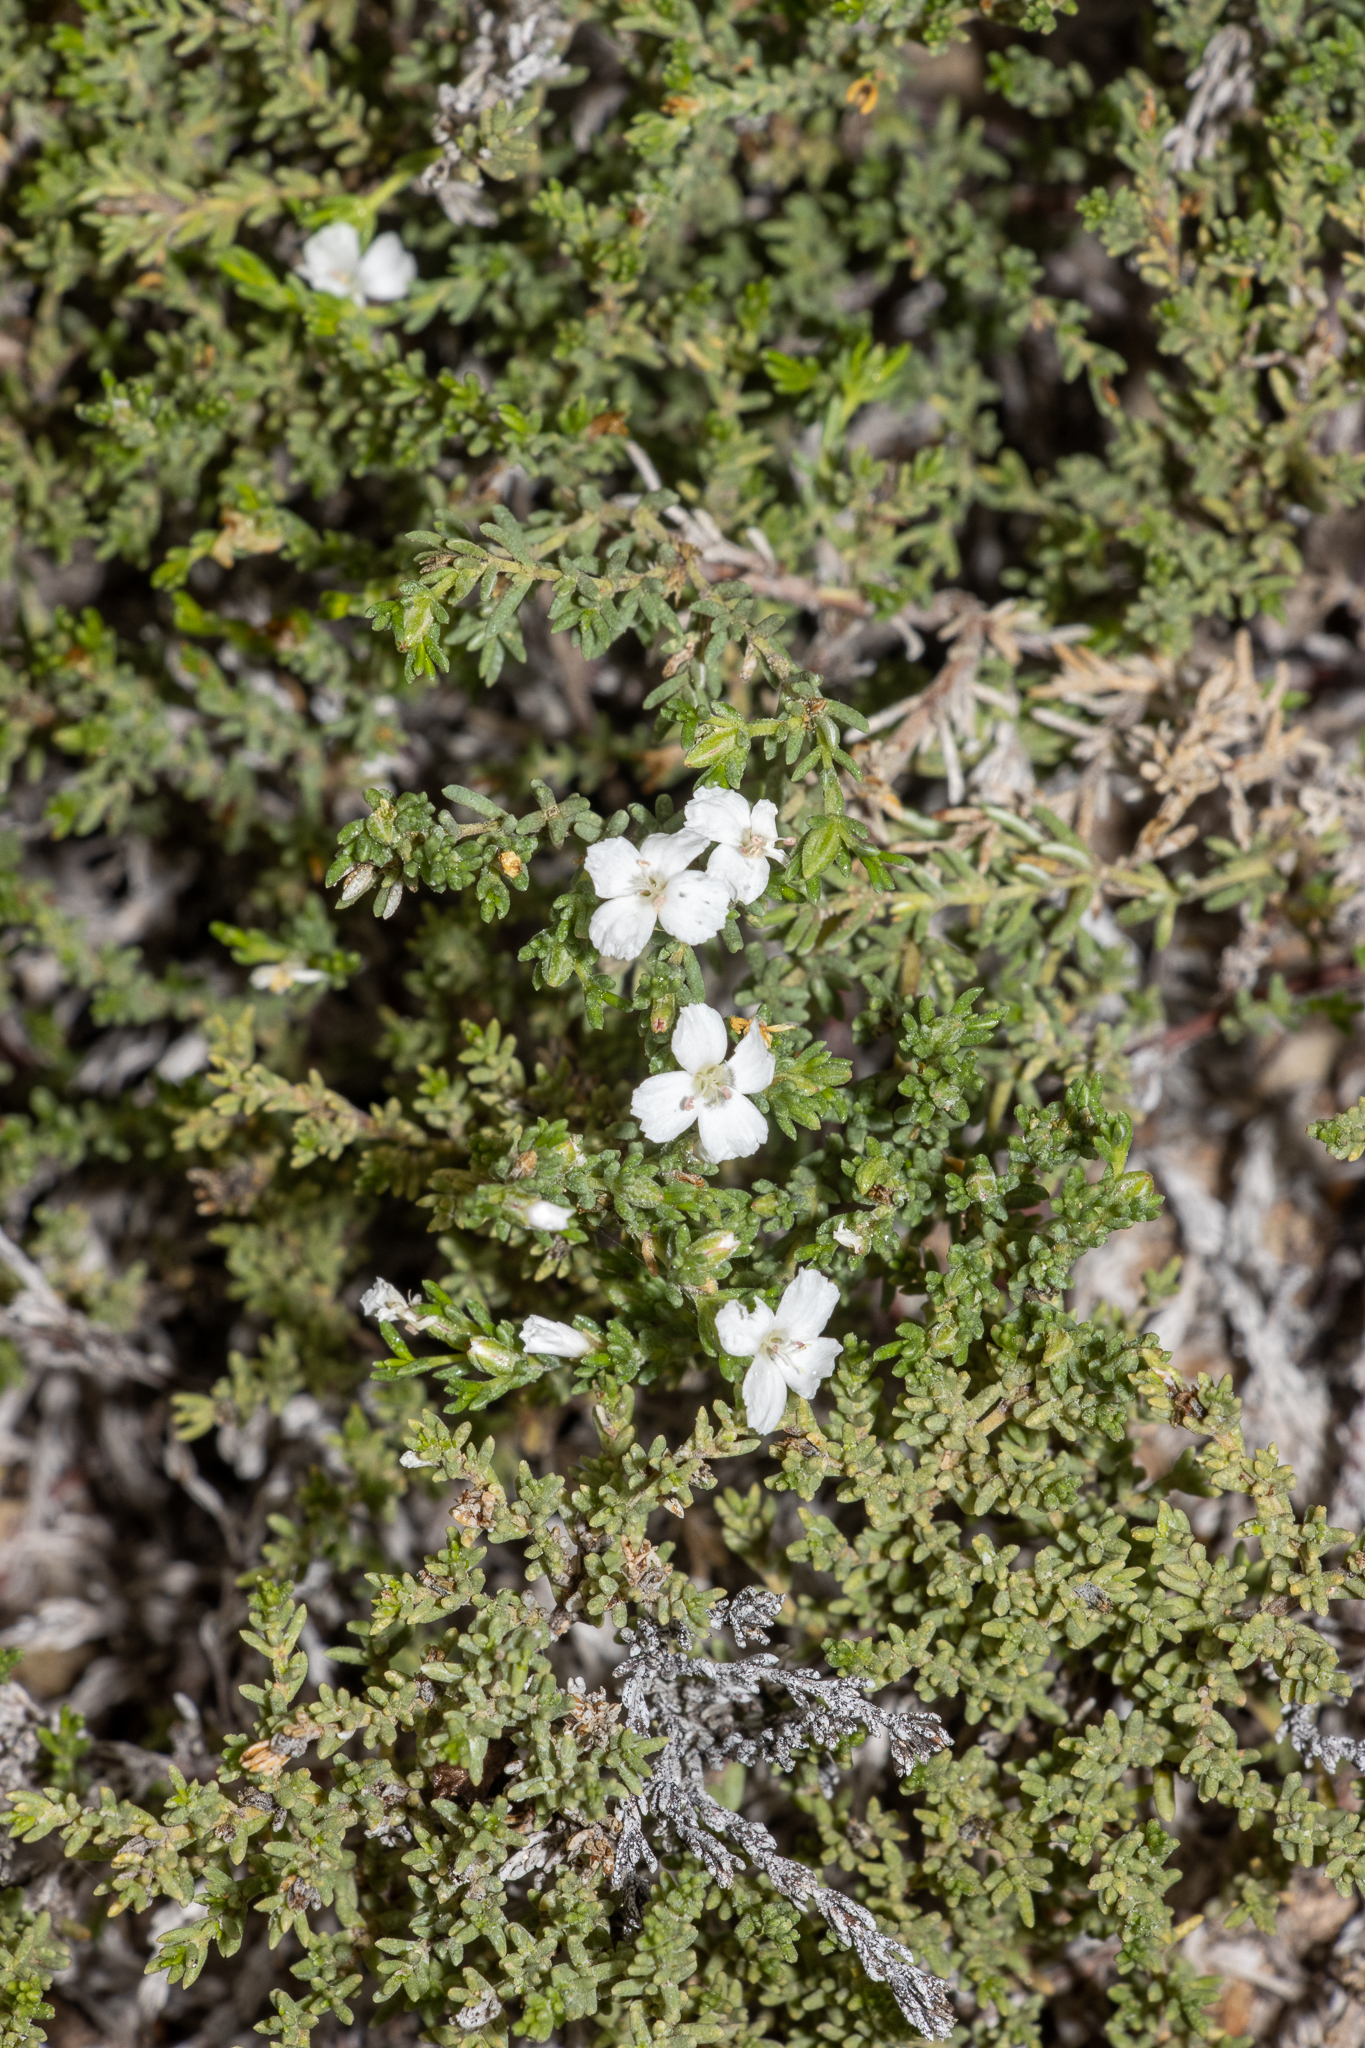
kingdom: Plantae
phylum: Tracheophyta
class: Magnoliopsida
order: Caryophyllales
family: Frankeniaceae
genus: Frankenia
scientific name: Frankenia sessilis
